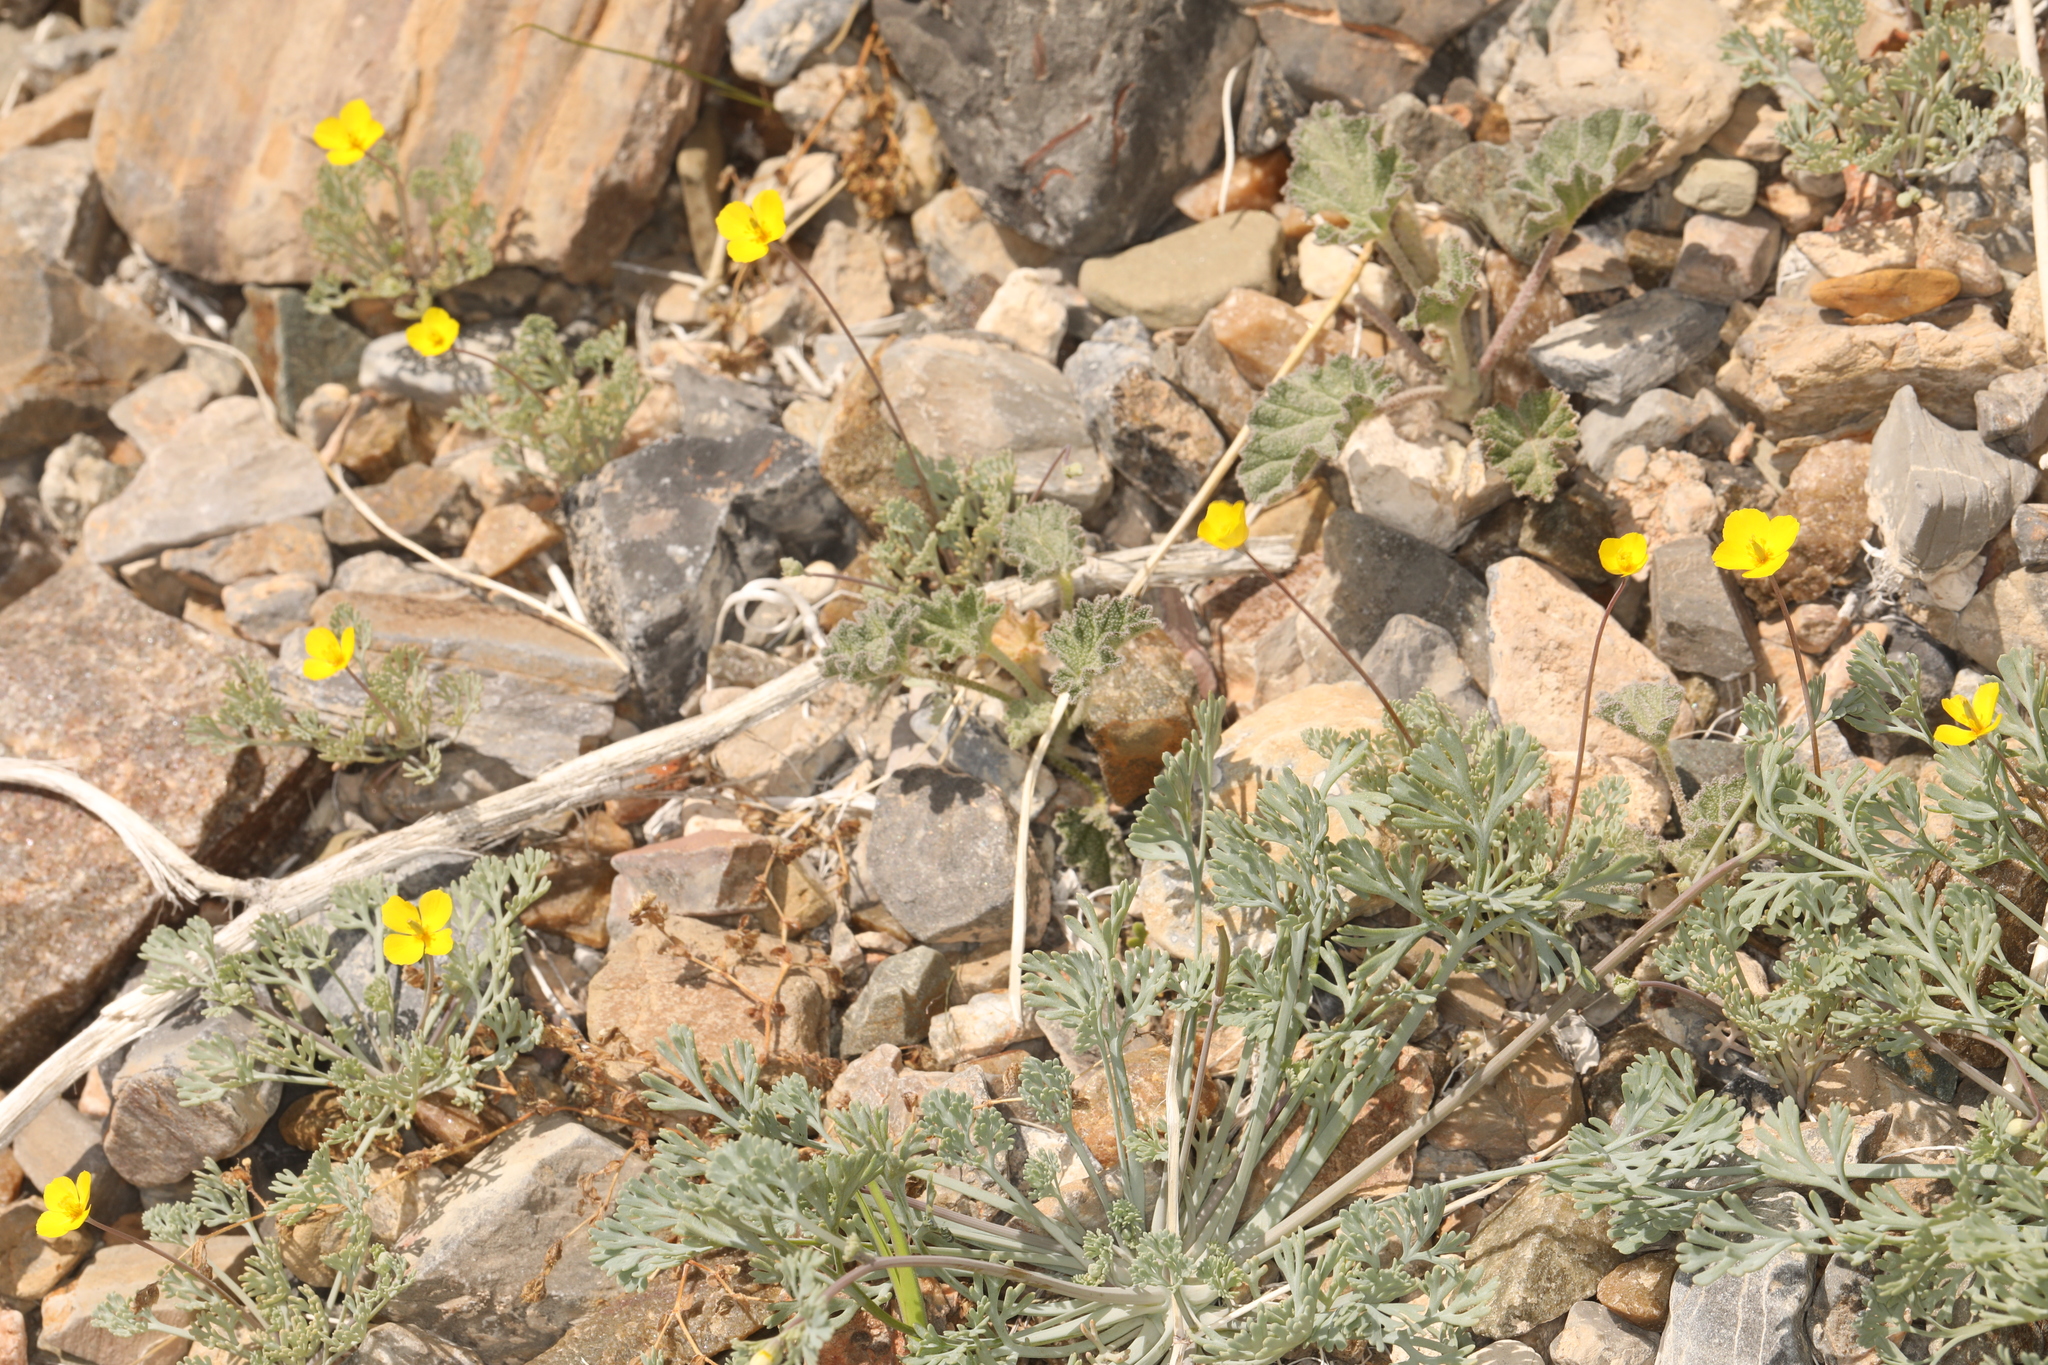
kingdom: Plantae
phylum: Tracheophyta
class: Magnoliopsida
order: Ranunculales
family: Papaveraceae
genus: Eschscholzia
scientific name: Eschscholzia minutiflora
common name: Small-flower california-poppy
